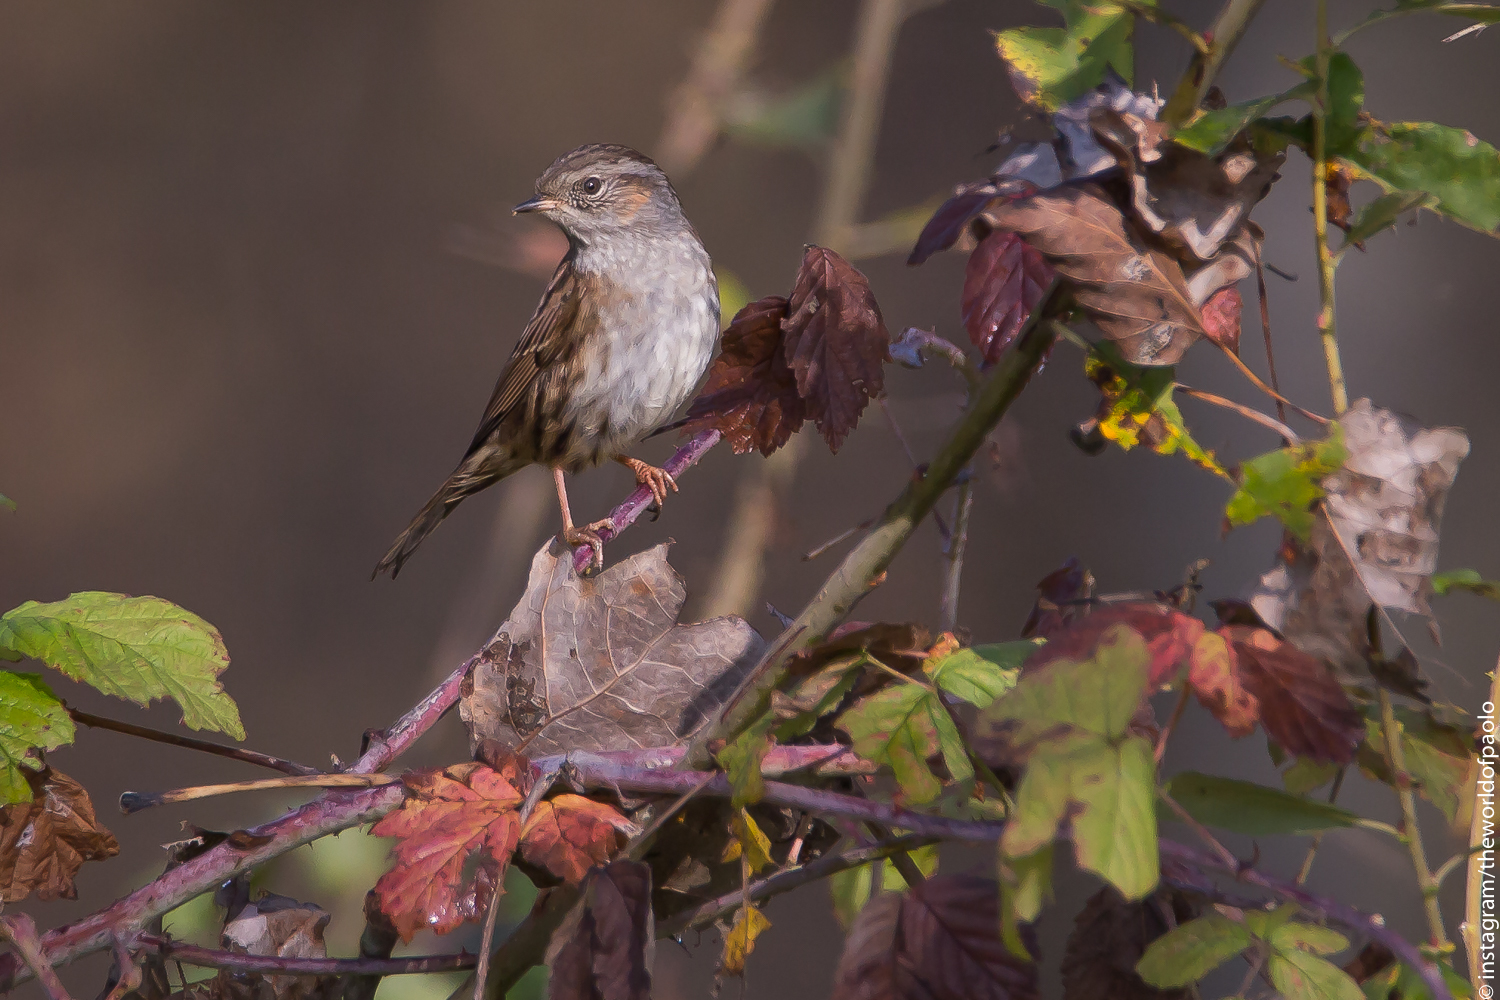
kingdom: Animalia
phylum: Chordata
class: Aves
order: Passeriformes
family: Prunellidae
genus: Prunella
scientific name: Prunella modularis
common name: Dunnock
